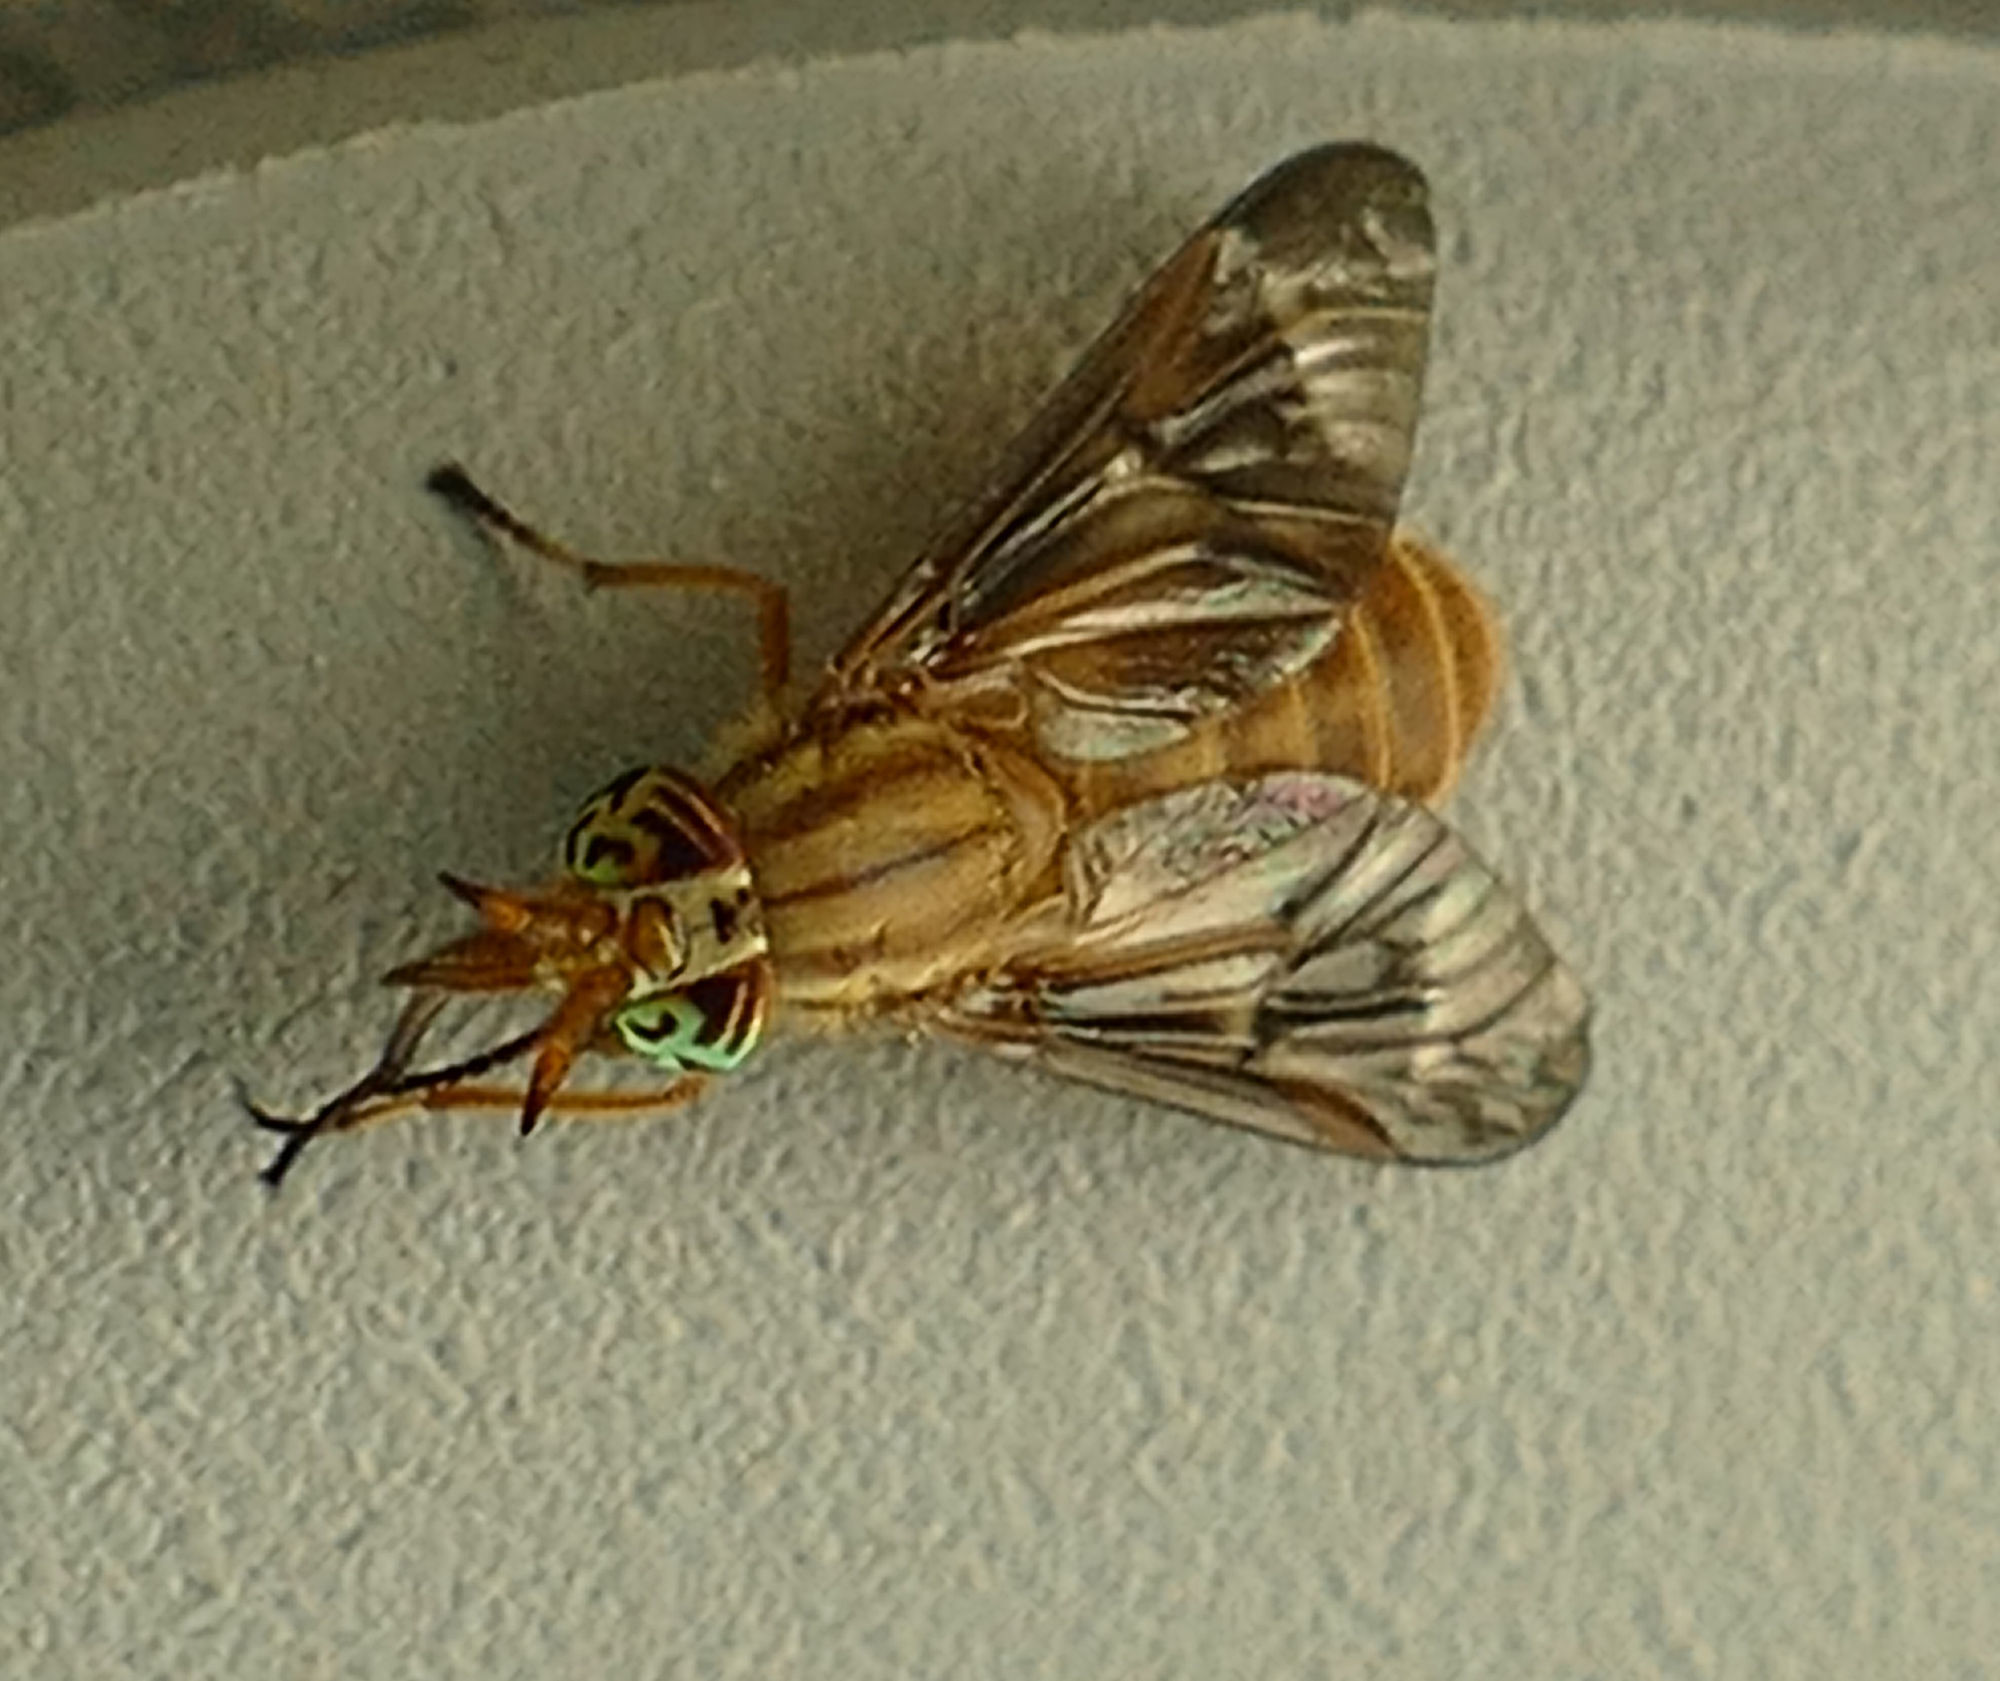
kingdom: Animalia
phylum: Arthropoda
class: Insecta
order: Diptera
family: Tabanidae
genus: Chrysops
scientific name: Chrysops brunneus
